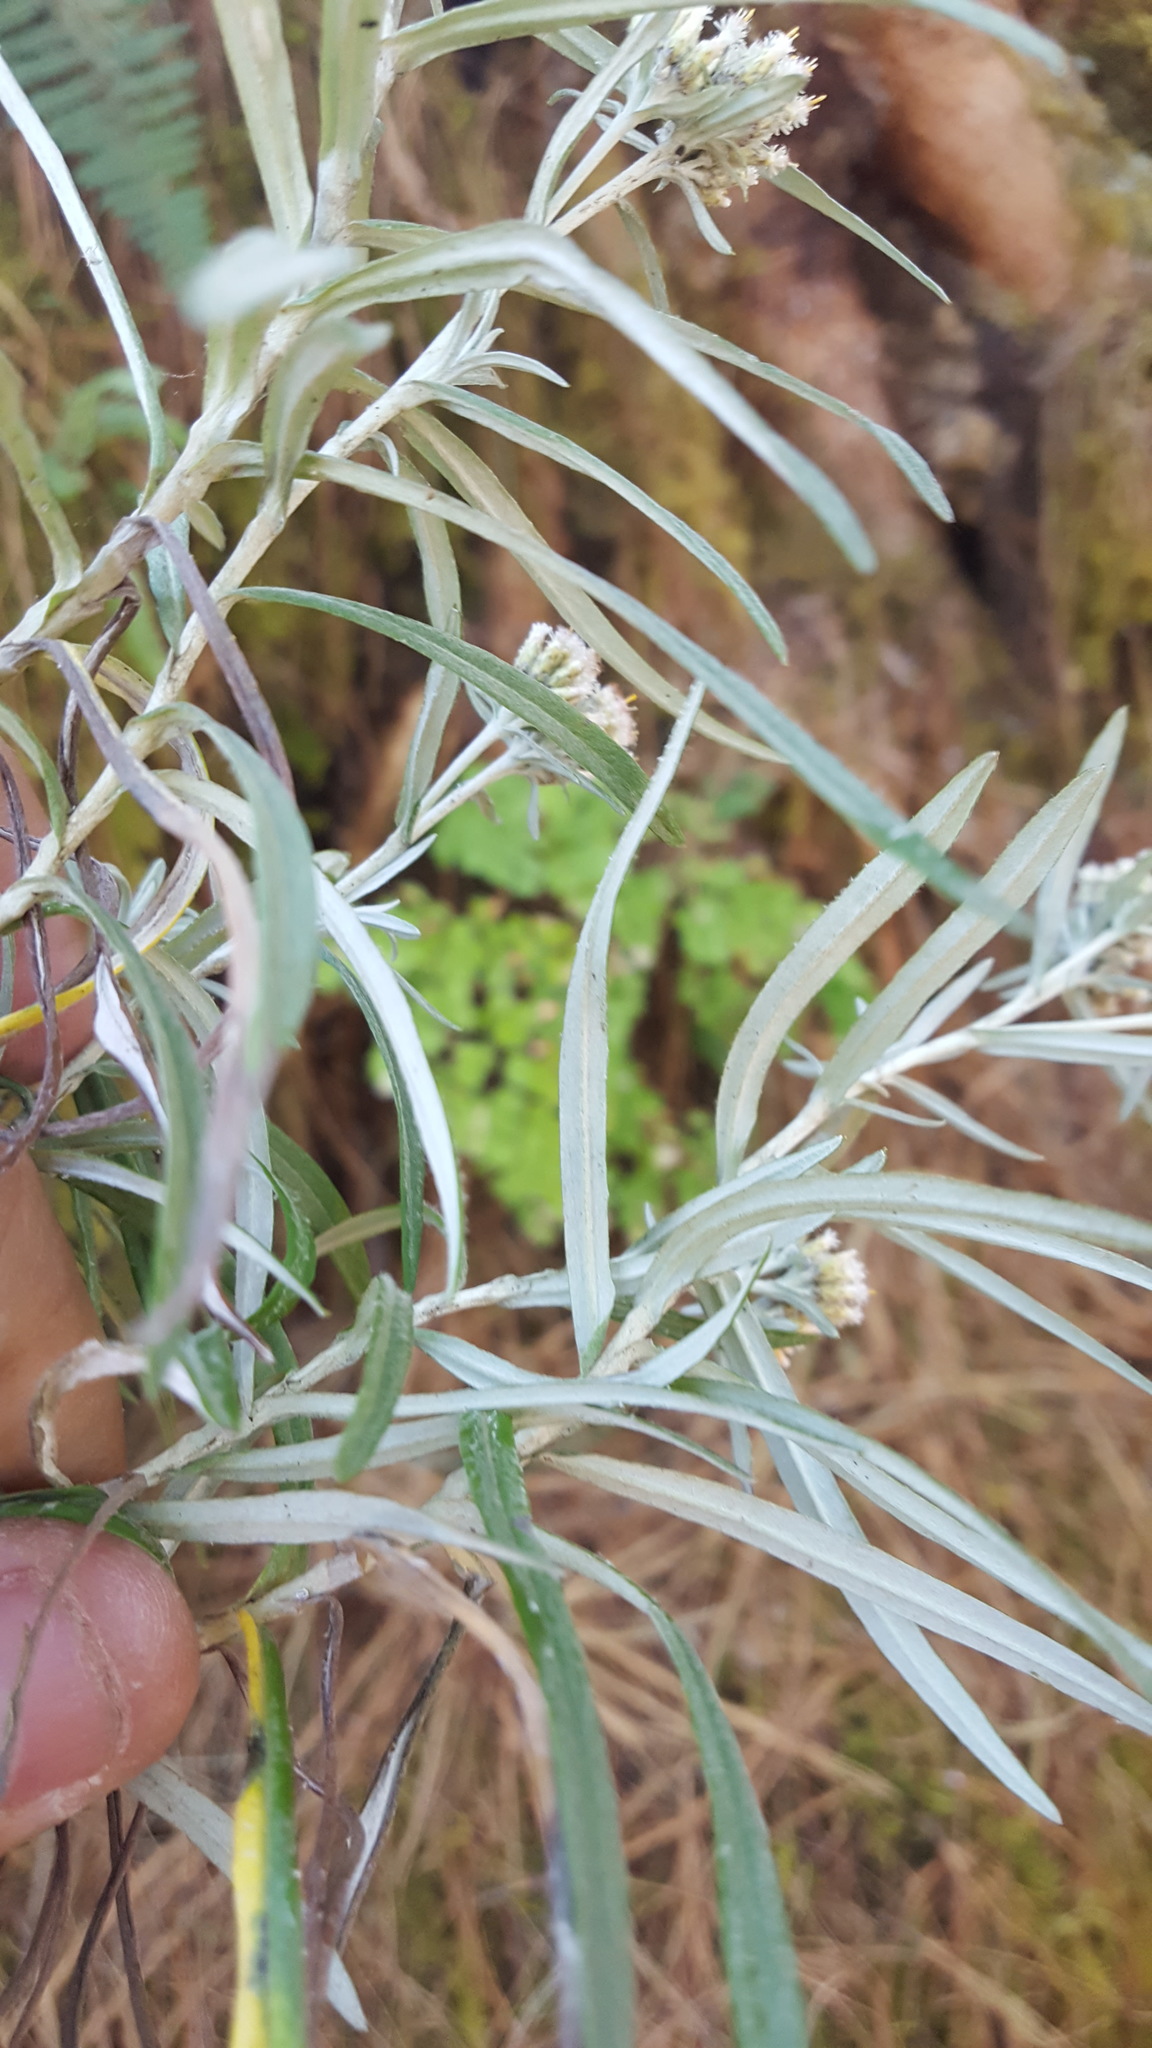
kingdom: Plantae
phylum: Tracheophyta
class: Magnoliopsida
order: Asterales
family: Asteraceae
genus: Gnaphaliothamnus
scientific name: Gnaphaliothamnus salicifolius
